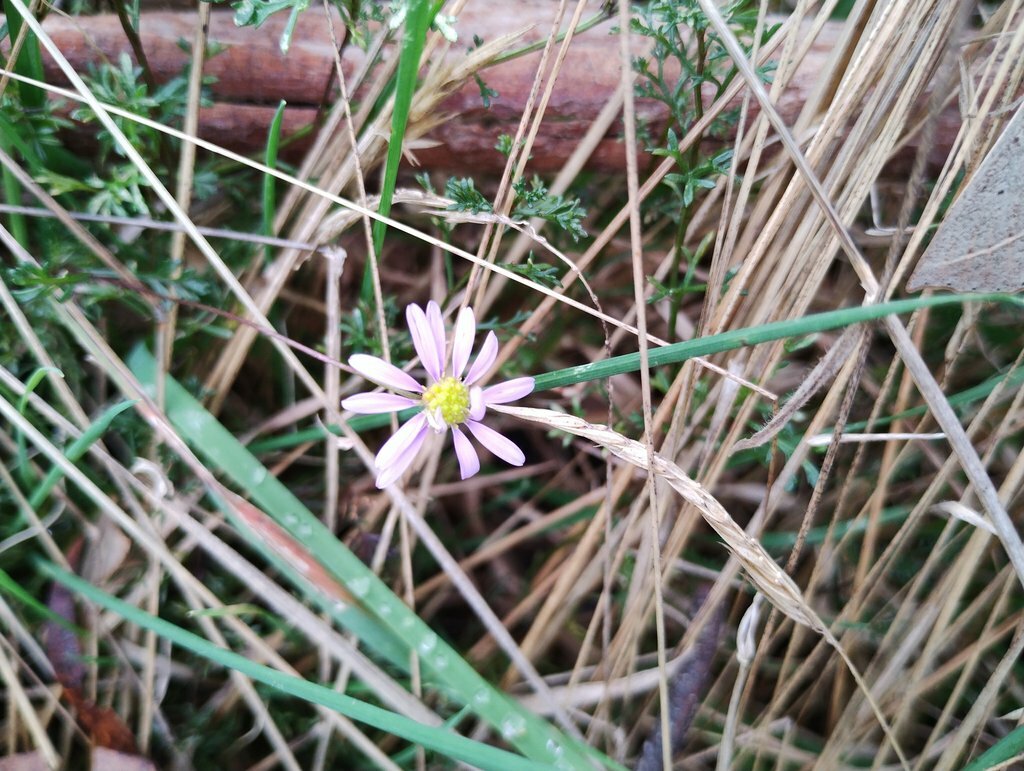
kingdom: Plantae
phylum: Tracheophyta
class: Magnoliopsida
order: Asterales
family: Asteraceae
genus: Brachyscome
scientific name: Brachyscome multifida
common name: Cut-leaf daisy
